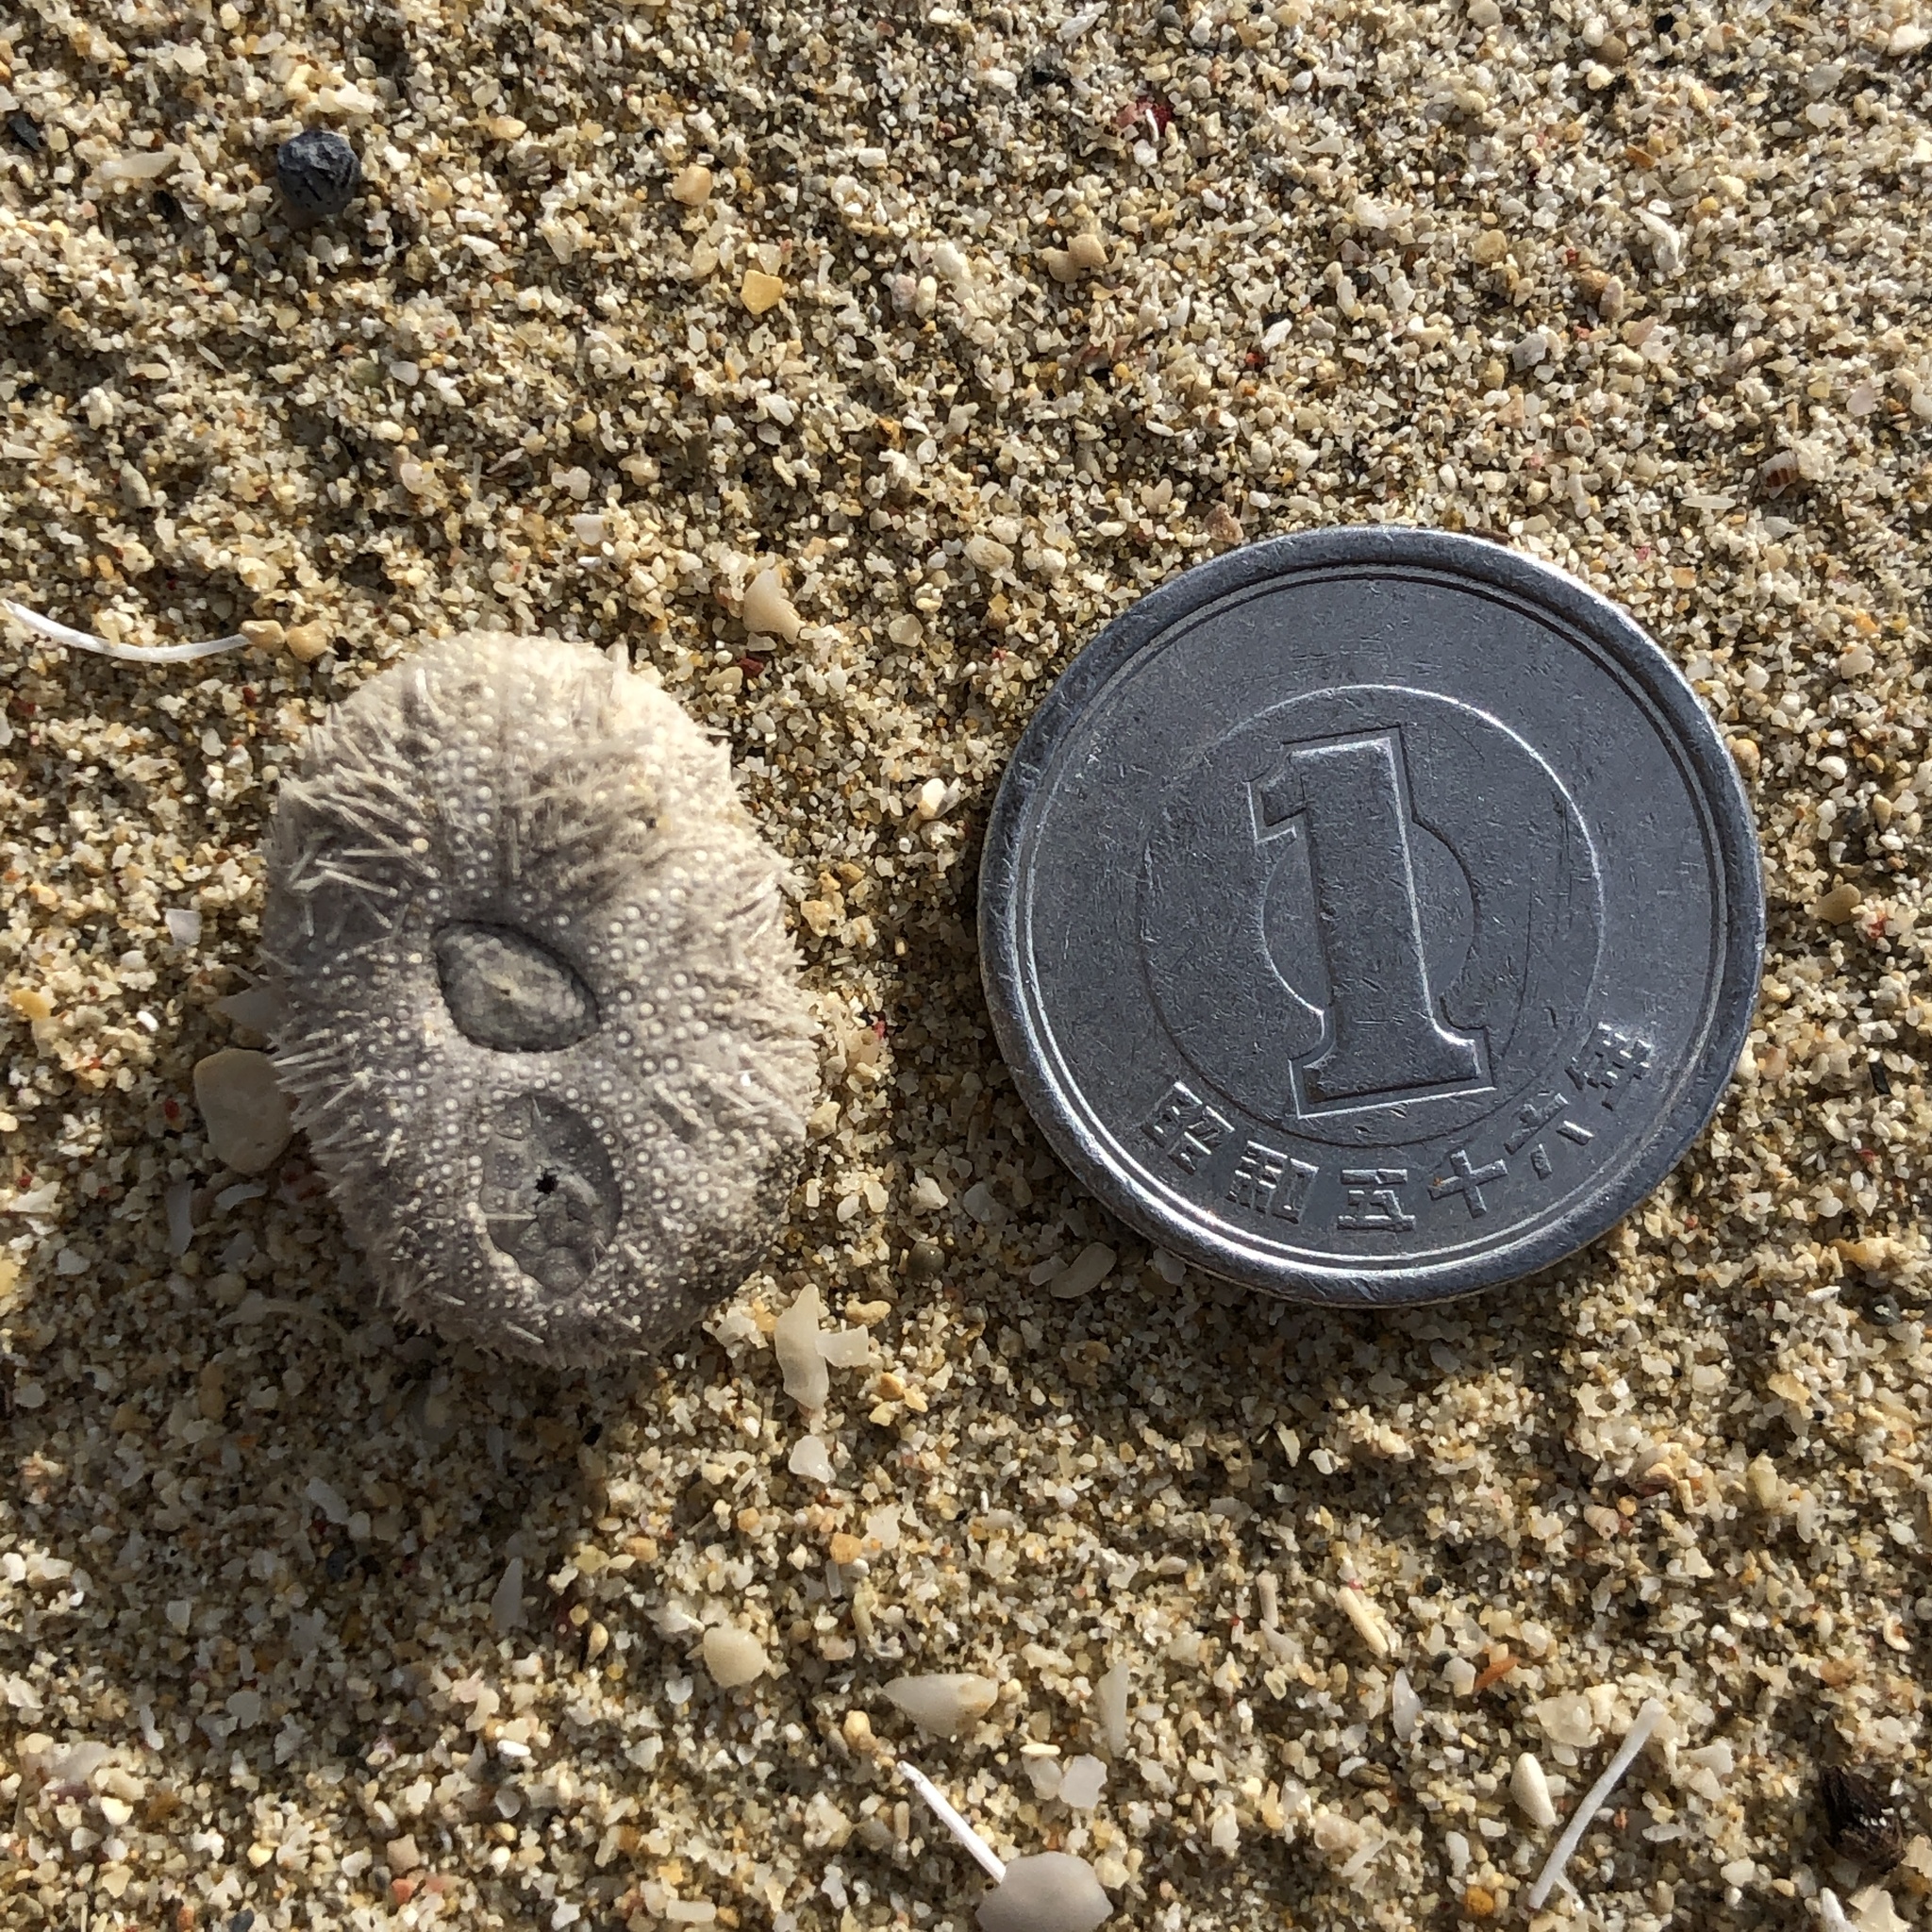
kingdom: Animalia
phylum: Echinodermata
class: Echinoidea
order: Echinoneoida
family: Echinoneidae
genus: Echinoneus
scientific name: Echinoneus cyclostomus
